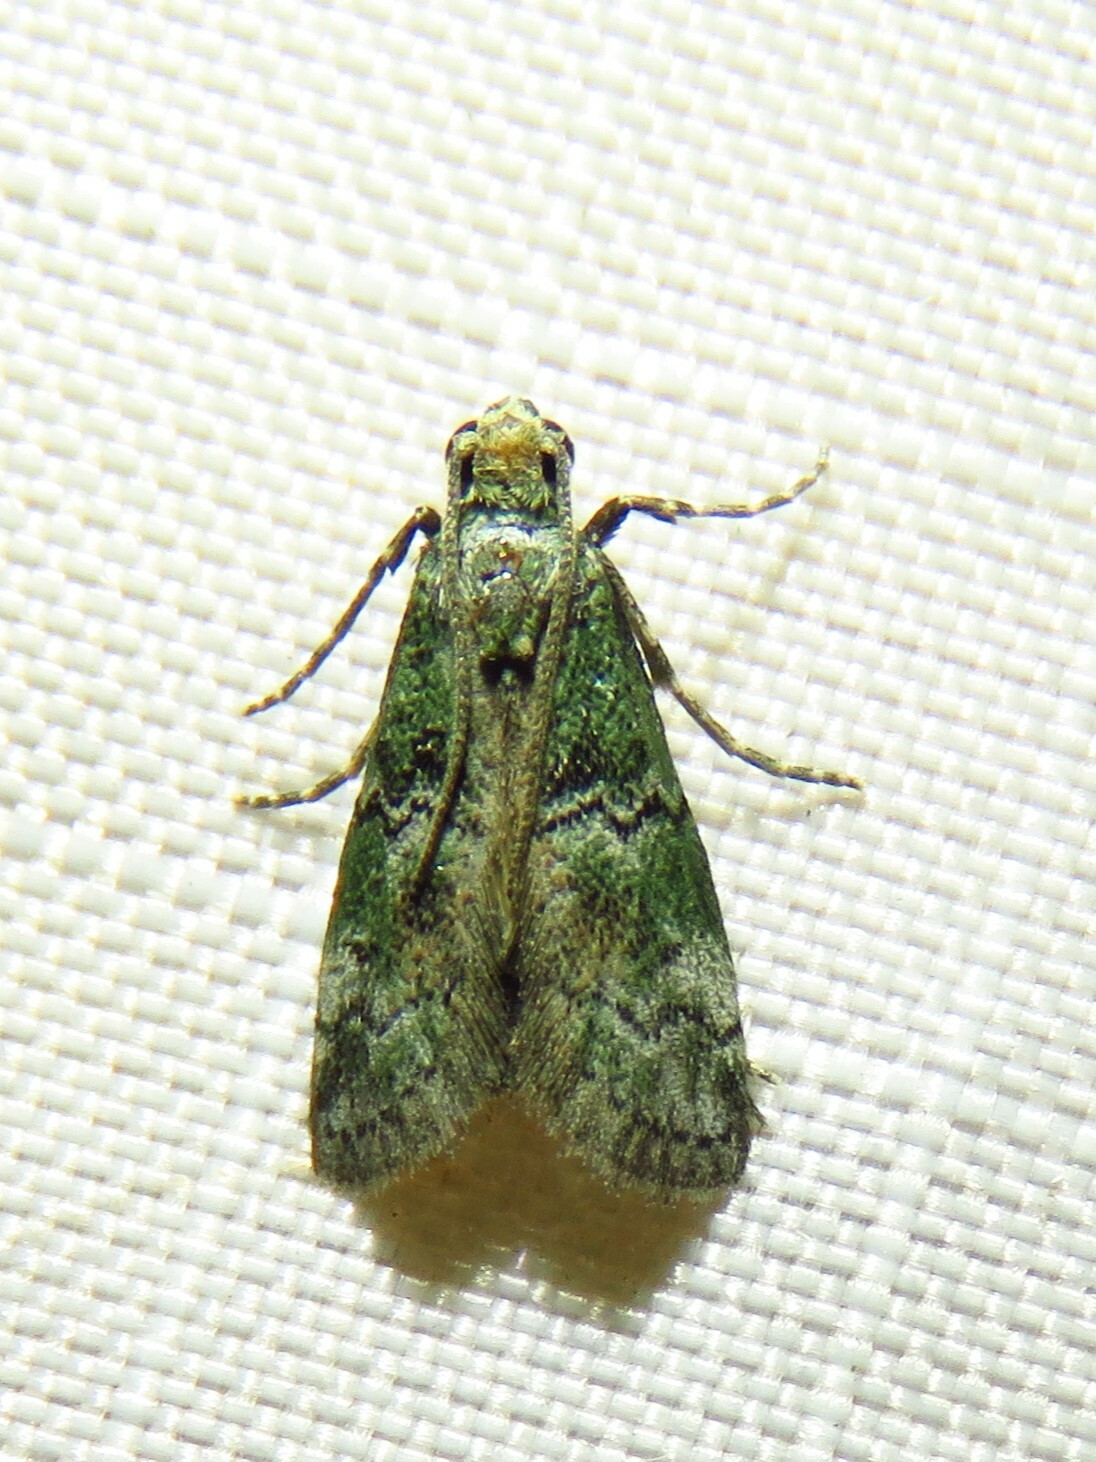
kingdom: Animalia
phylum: Arthropoda
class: Insecta
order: Lepidoptera
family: Pyralidae
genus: Cacotherapia
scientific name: Cacotherapia flexilinealis
